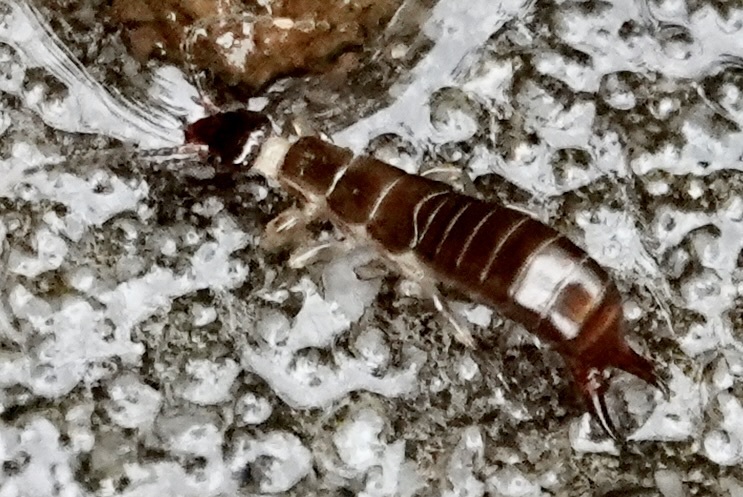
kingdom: Animalia
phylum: Arthropoda
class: Insecta
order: Dermaptera
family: Anisolabididae
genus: Euborellia
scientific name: Euborellia annulipes
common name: Ringlegged earwig
